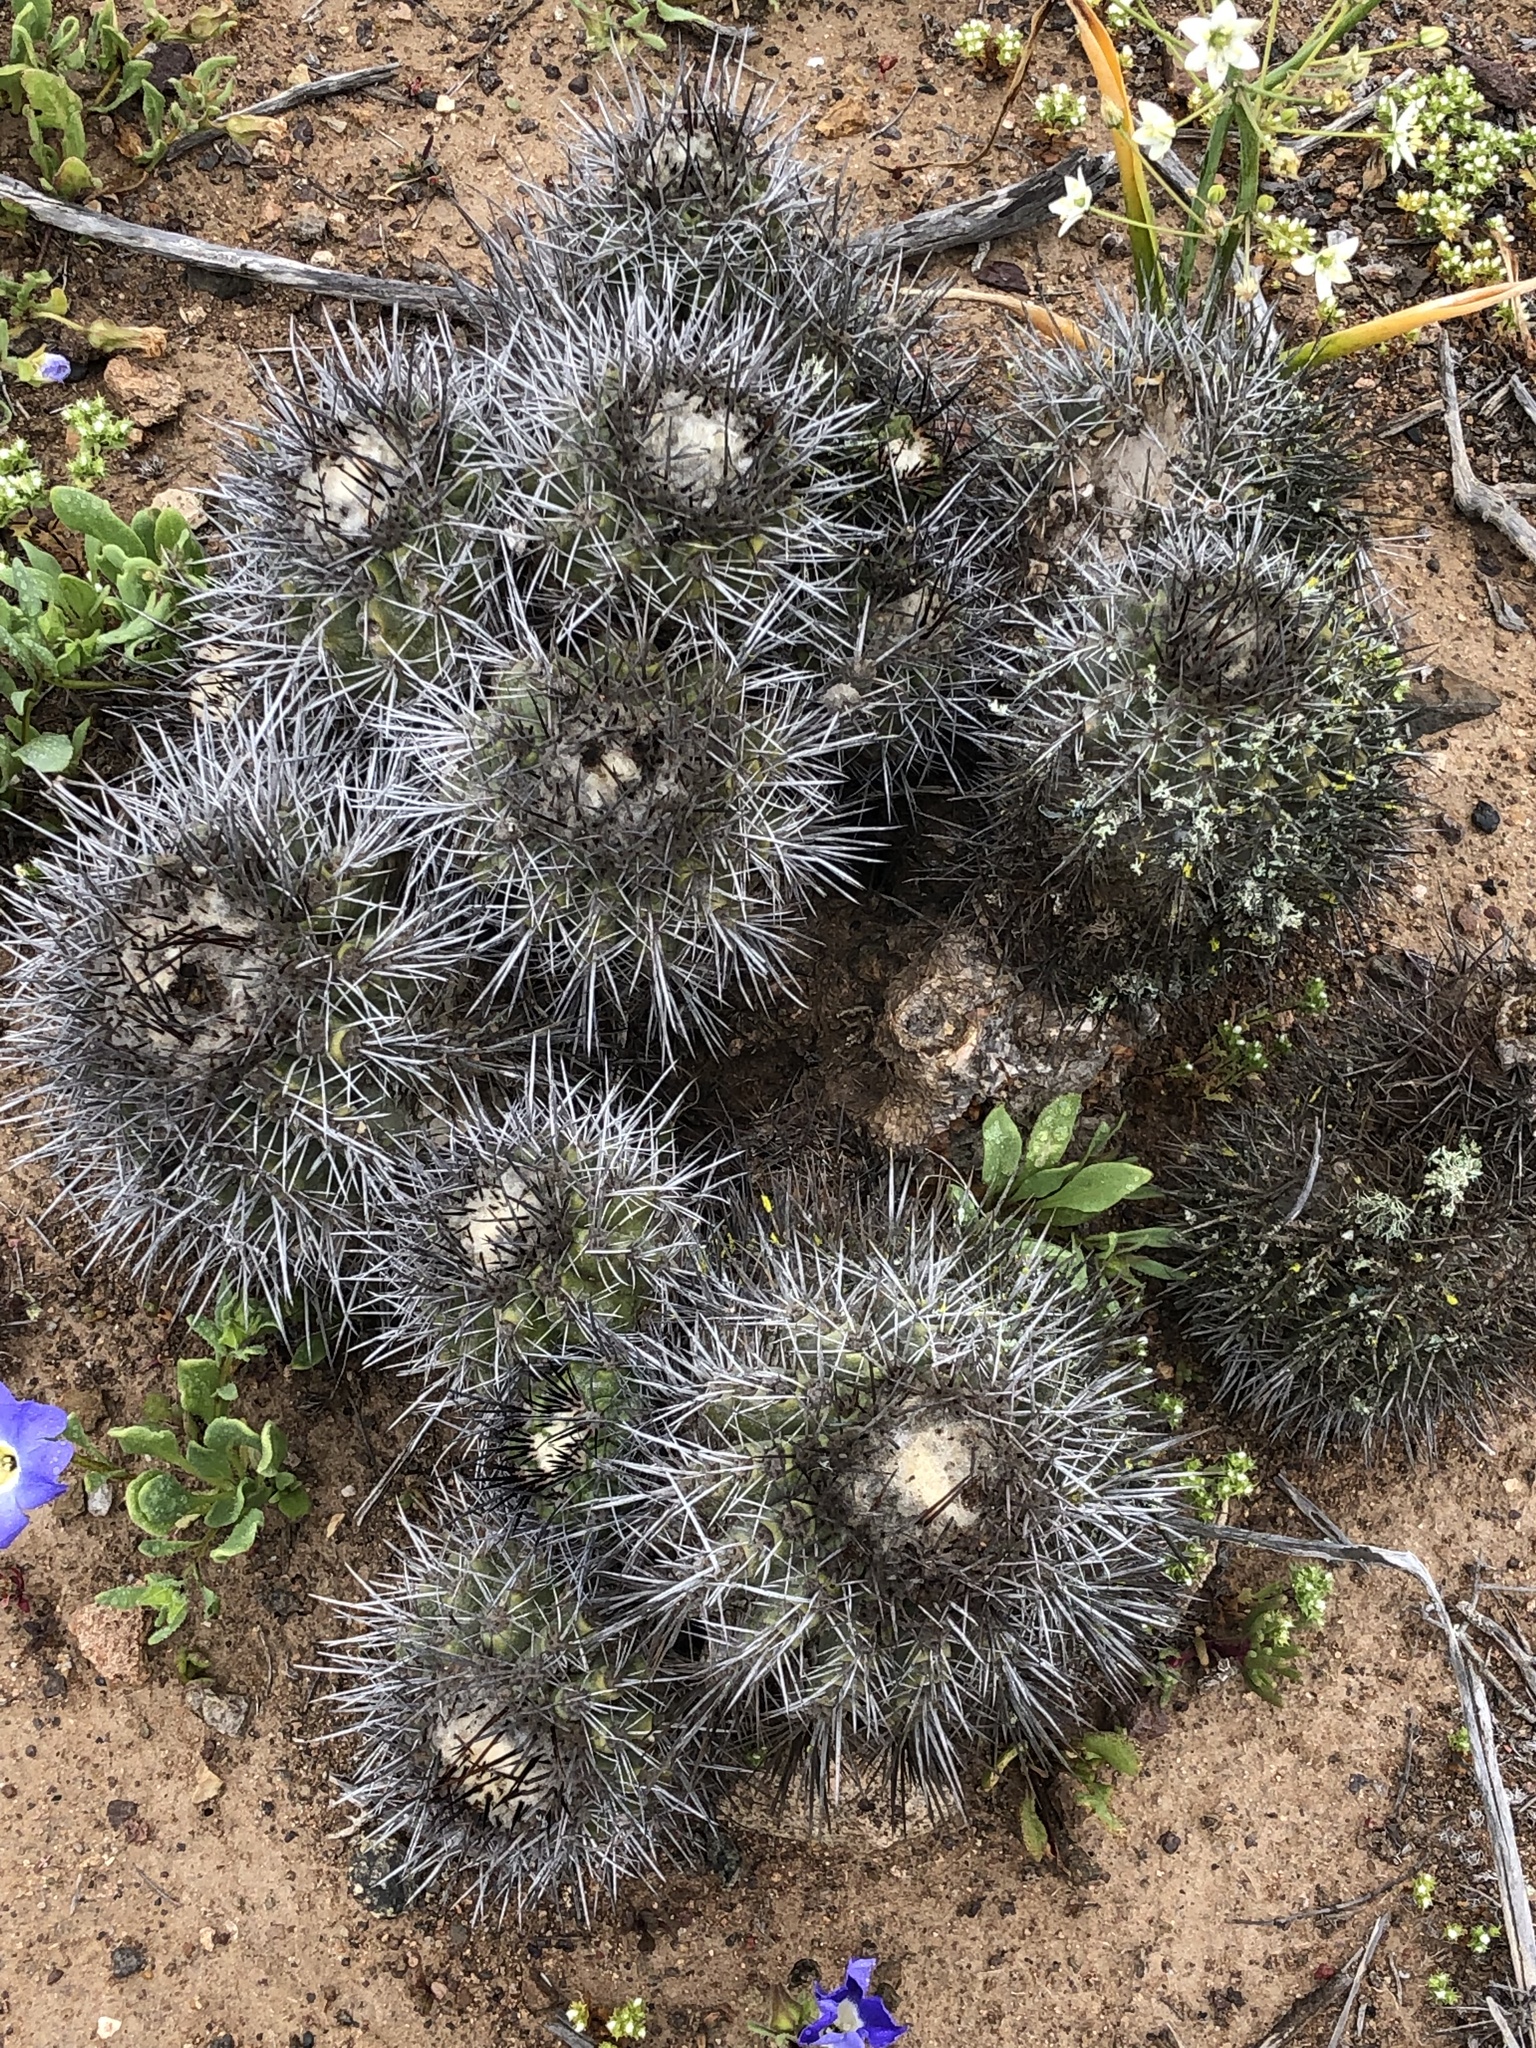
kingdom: Plantae
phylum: Tracheophyta
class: Magnoliopsida
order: Caryophyllales
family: Cactaceae
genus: Copiapoa
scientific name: Copiapoa coquimbana
